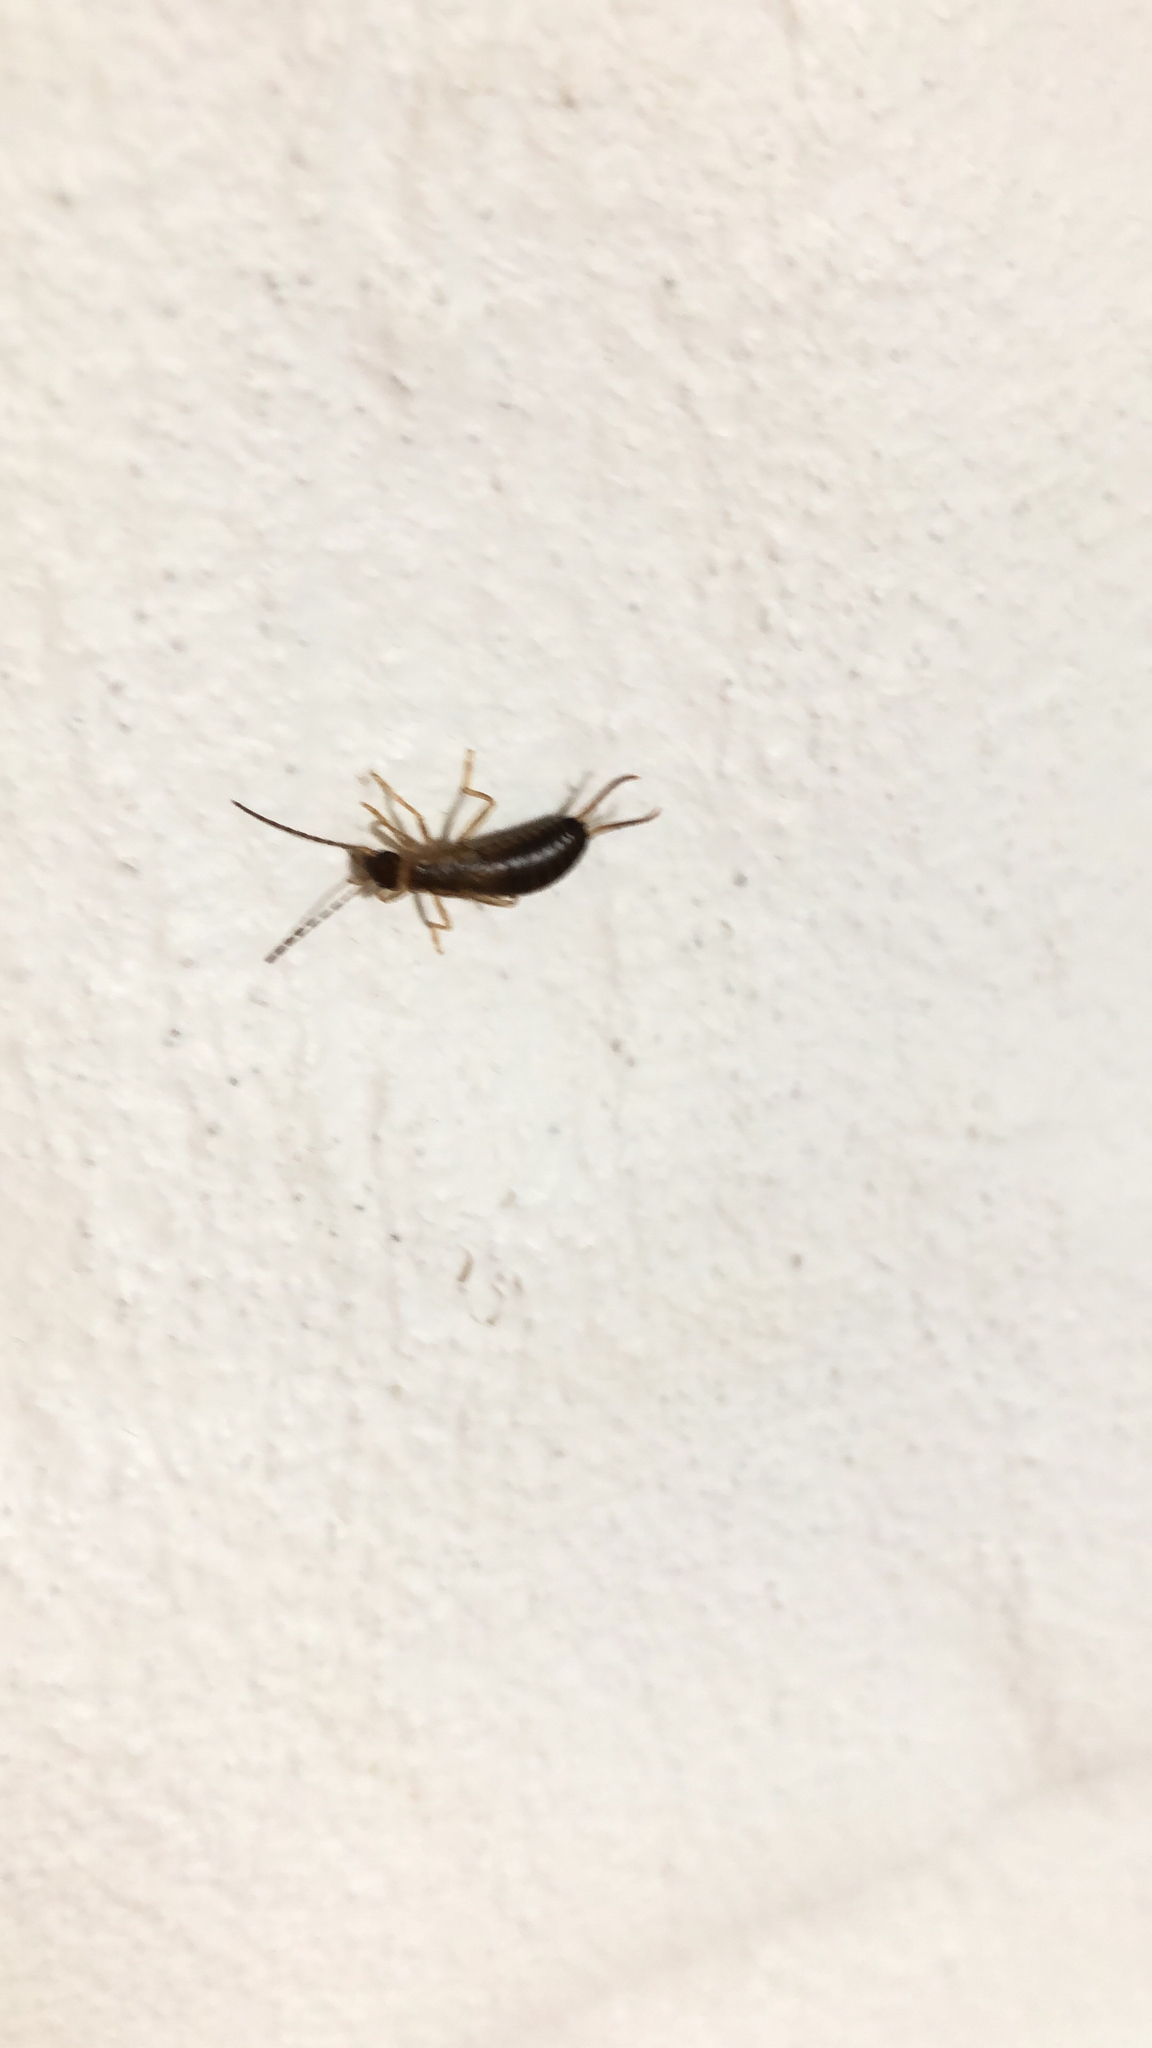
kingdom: Animalia
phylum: Arthropoda
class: Insecta
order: Dermaptera
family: Forficulidae
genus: Forficula
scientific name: Forficula
